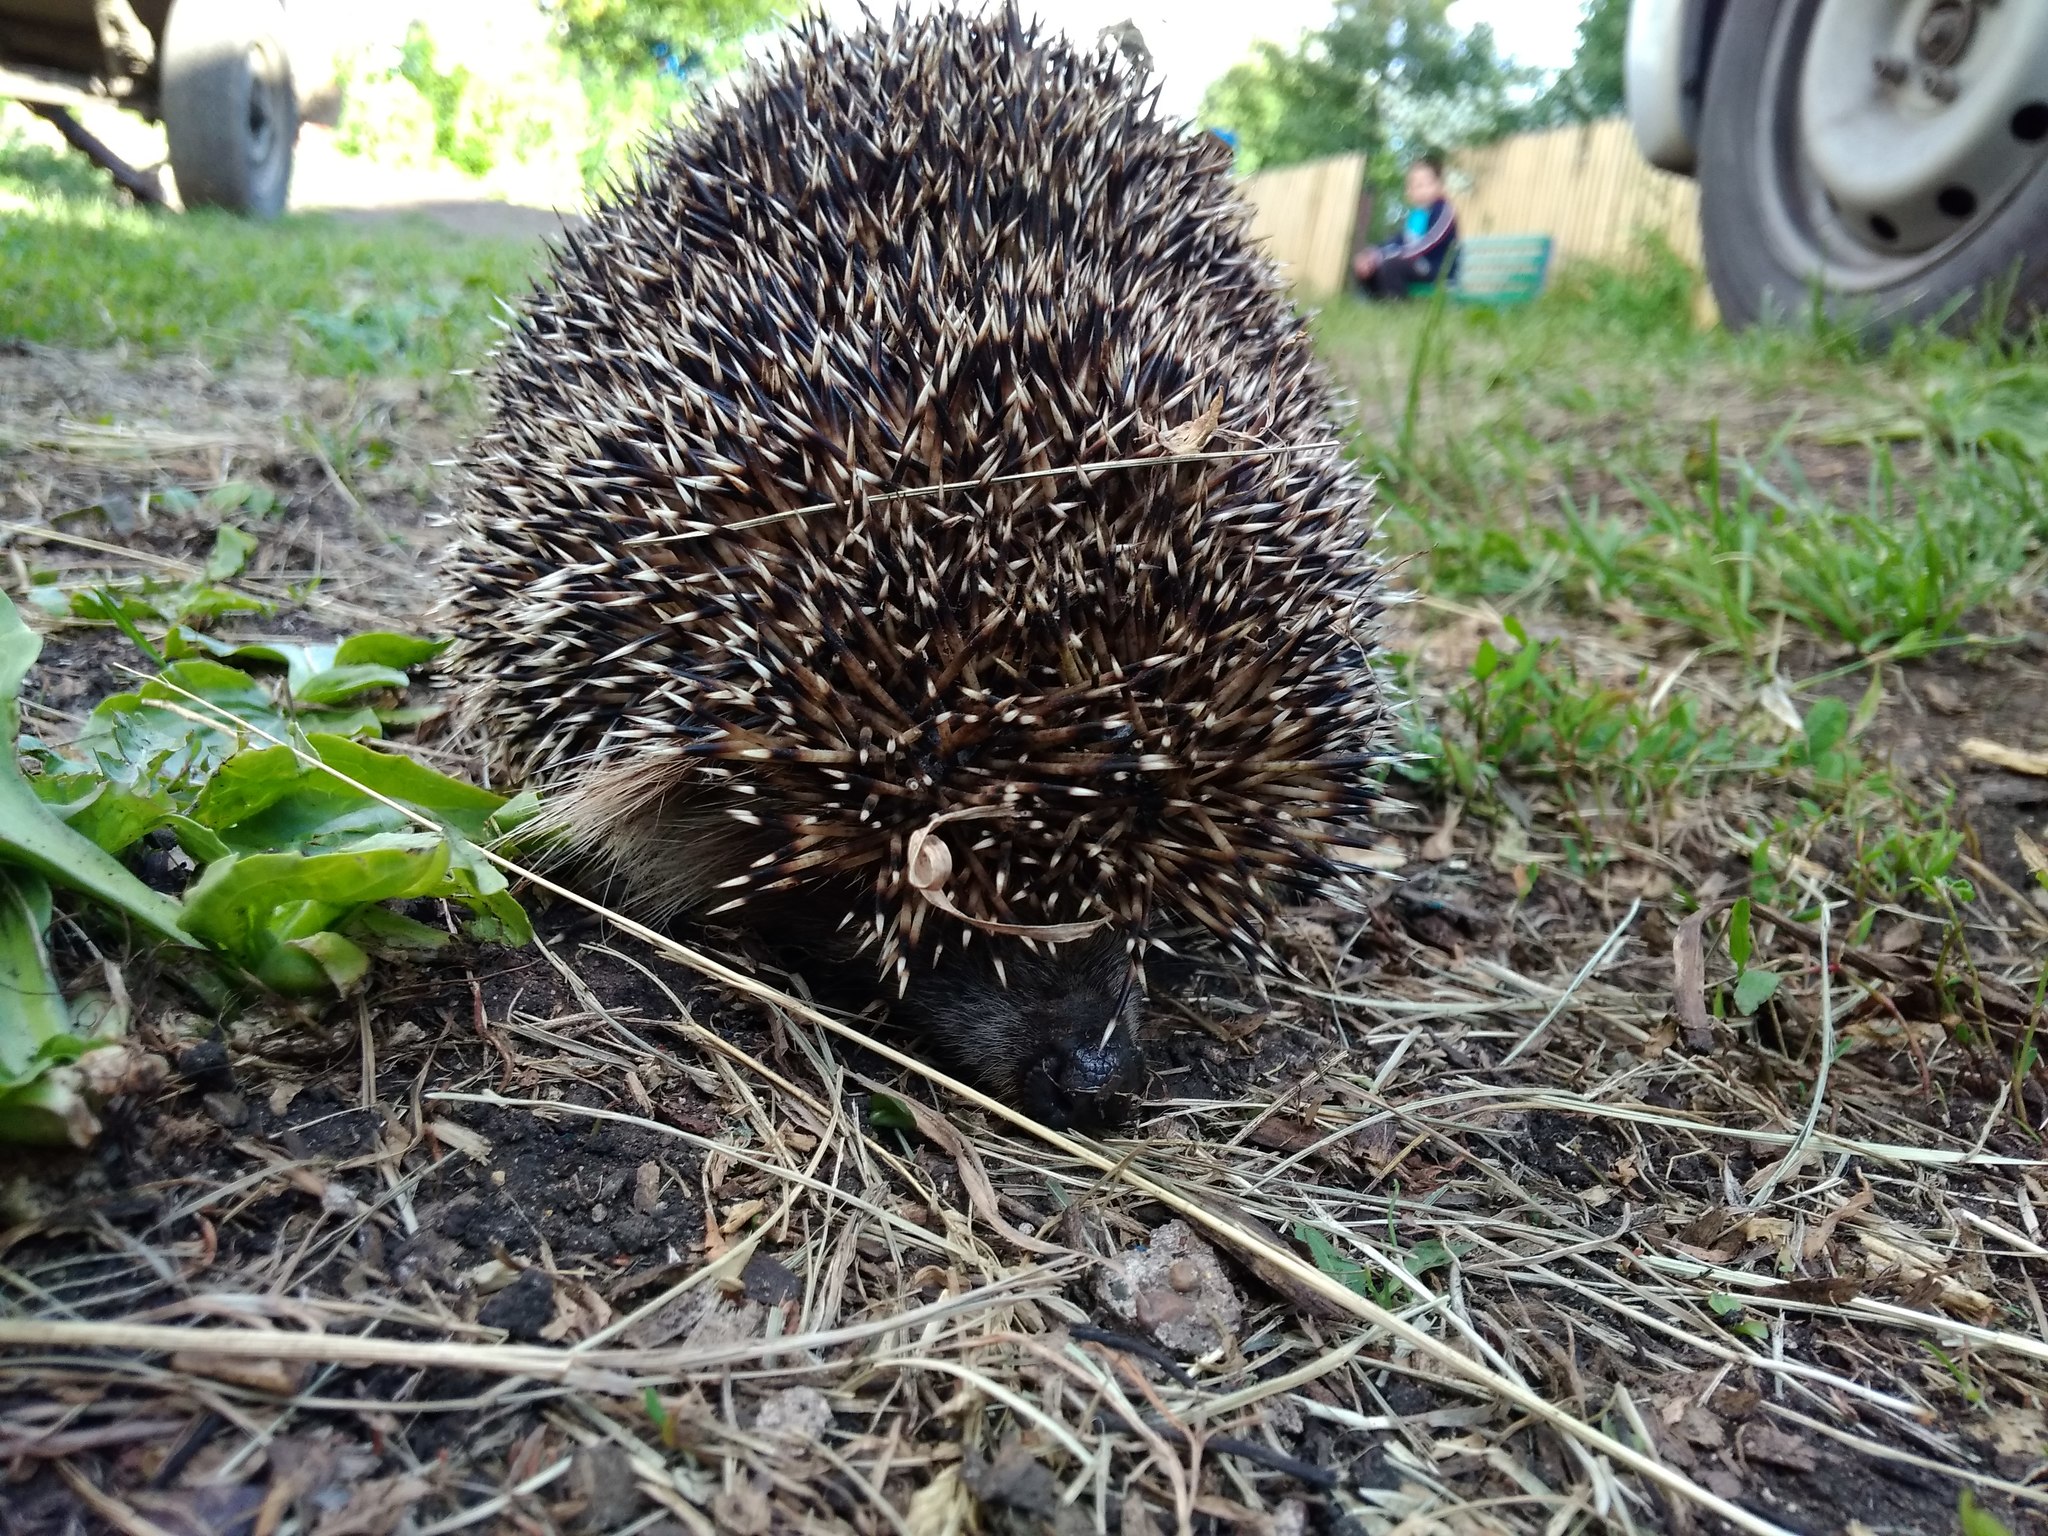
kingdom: Animalia
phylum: Chordata
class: Mammalia
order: Erinaceomorpha
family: Erinaceidae
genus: Erinaceus
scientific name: Erinaceus roumanicus
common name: Northern white-breasted hedgehog
